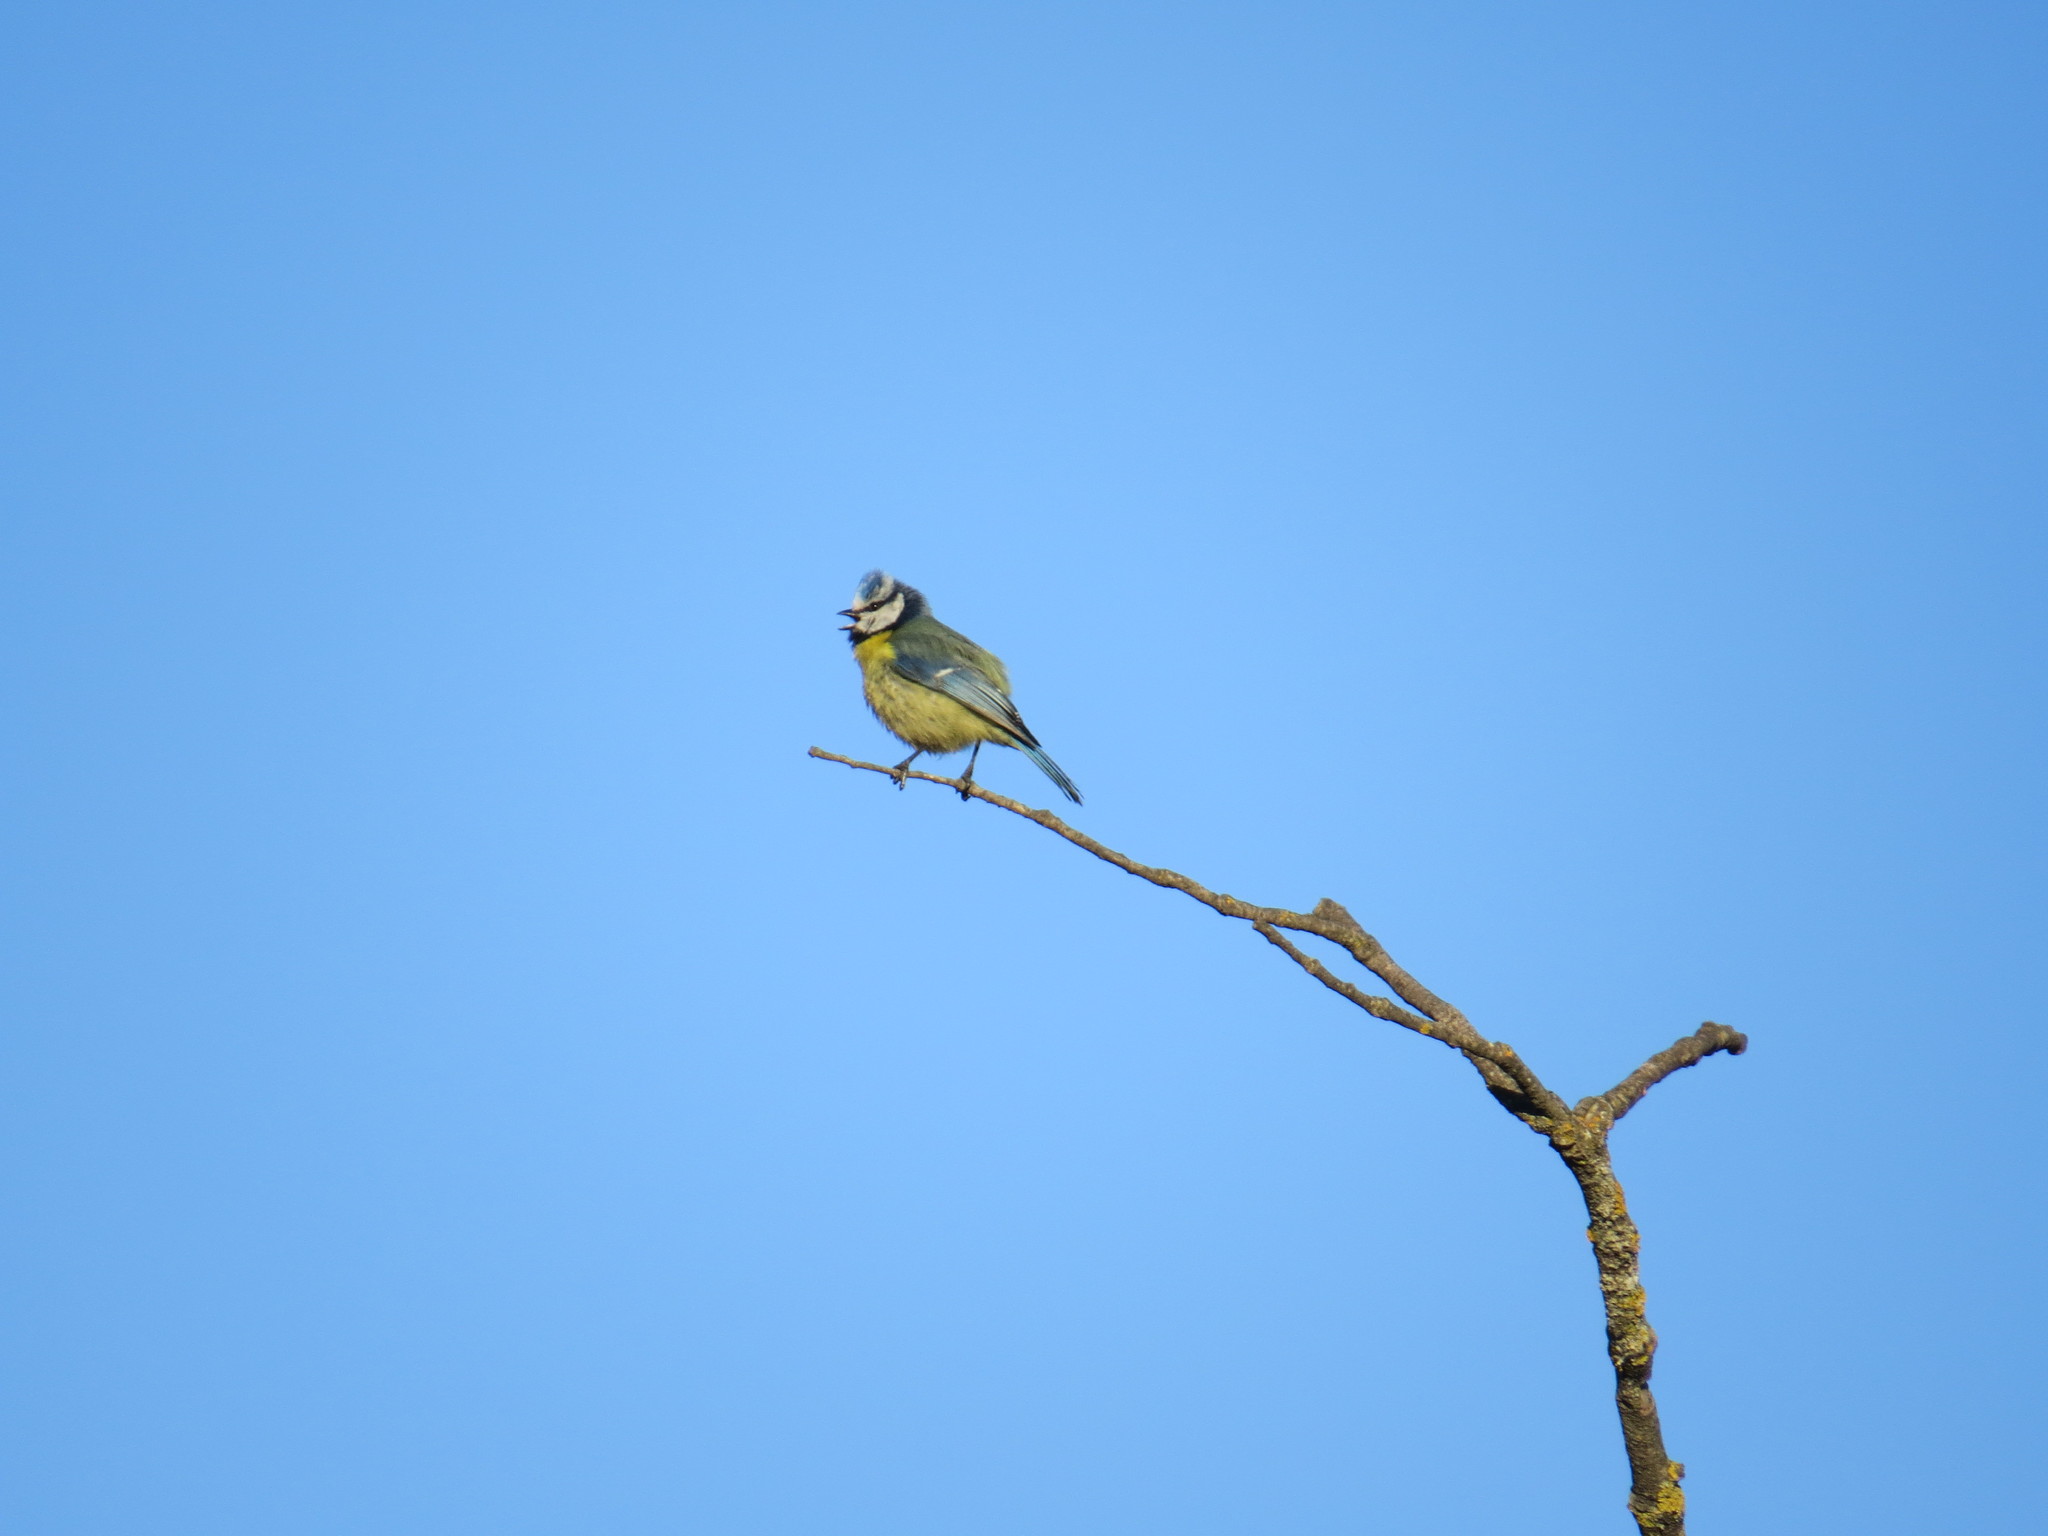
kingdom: Animalia
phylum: Chordata
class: Aves
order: Passeriformes
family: Paridae
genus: Cyanistes
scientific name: Cyanistes caeruleus
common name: Eurasian blue tit
